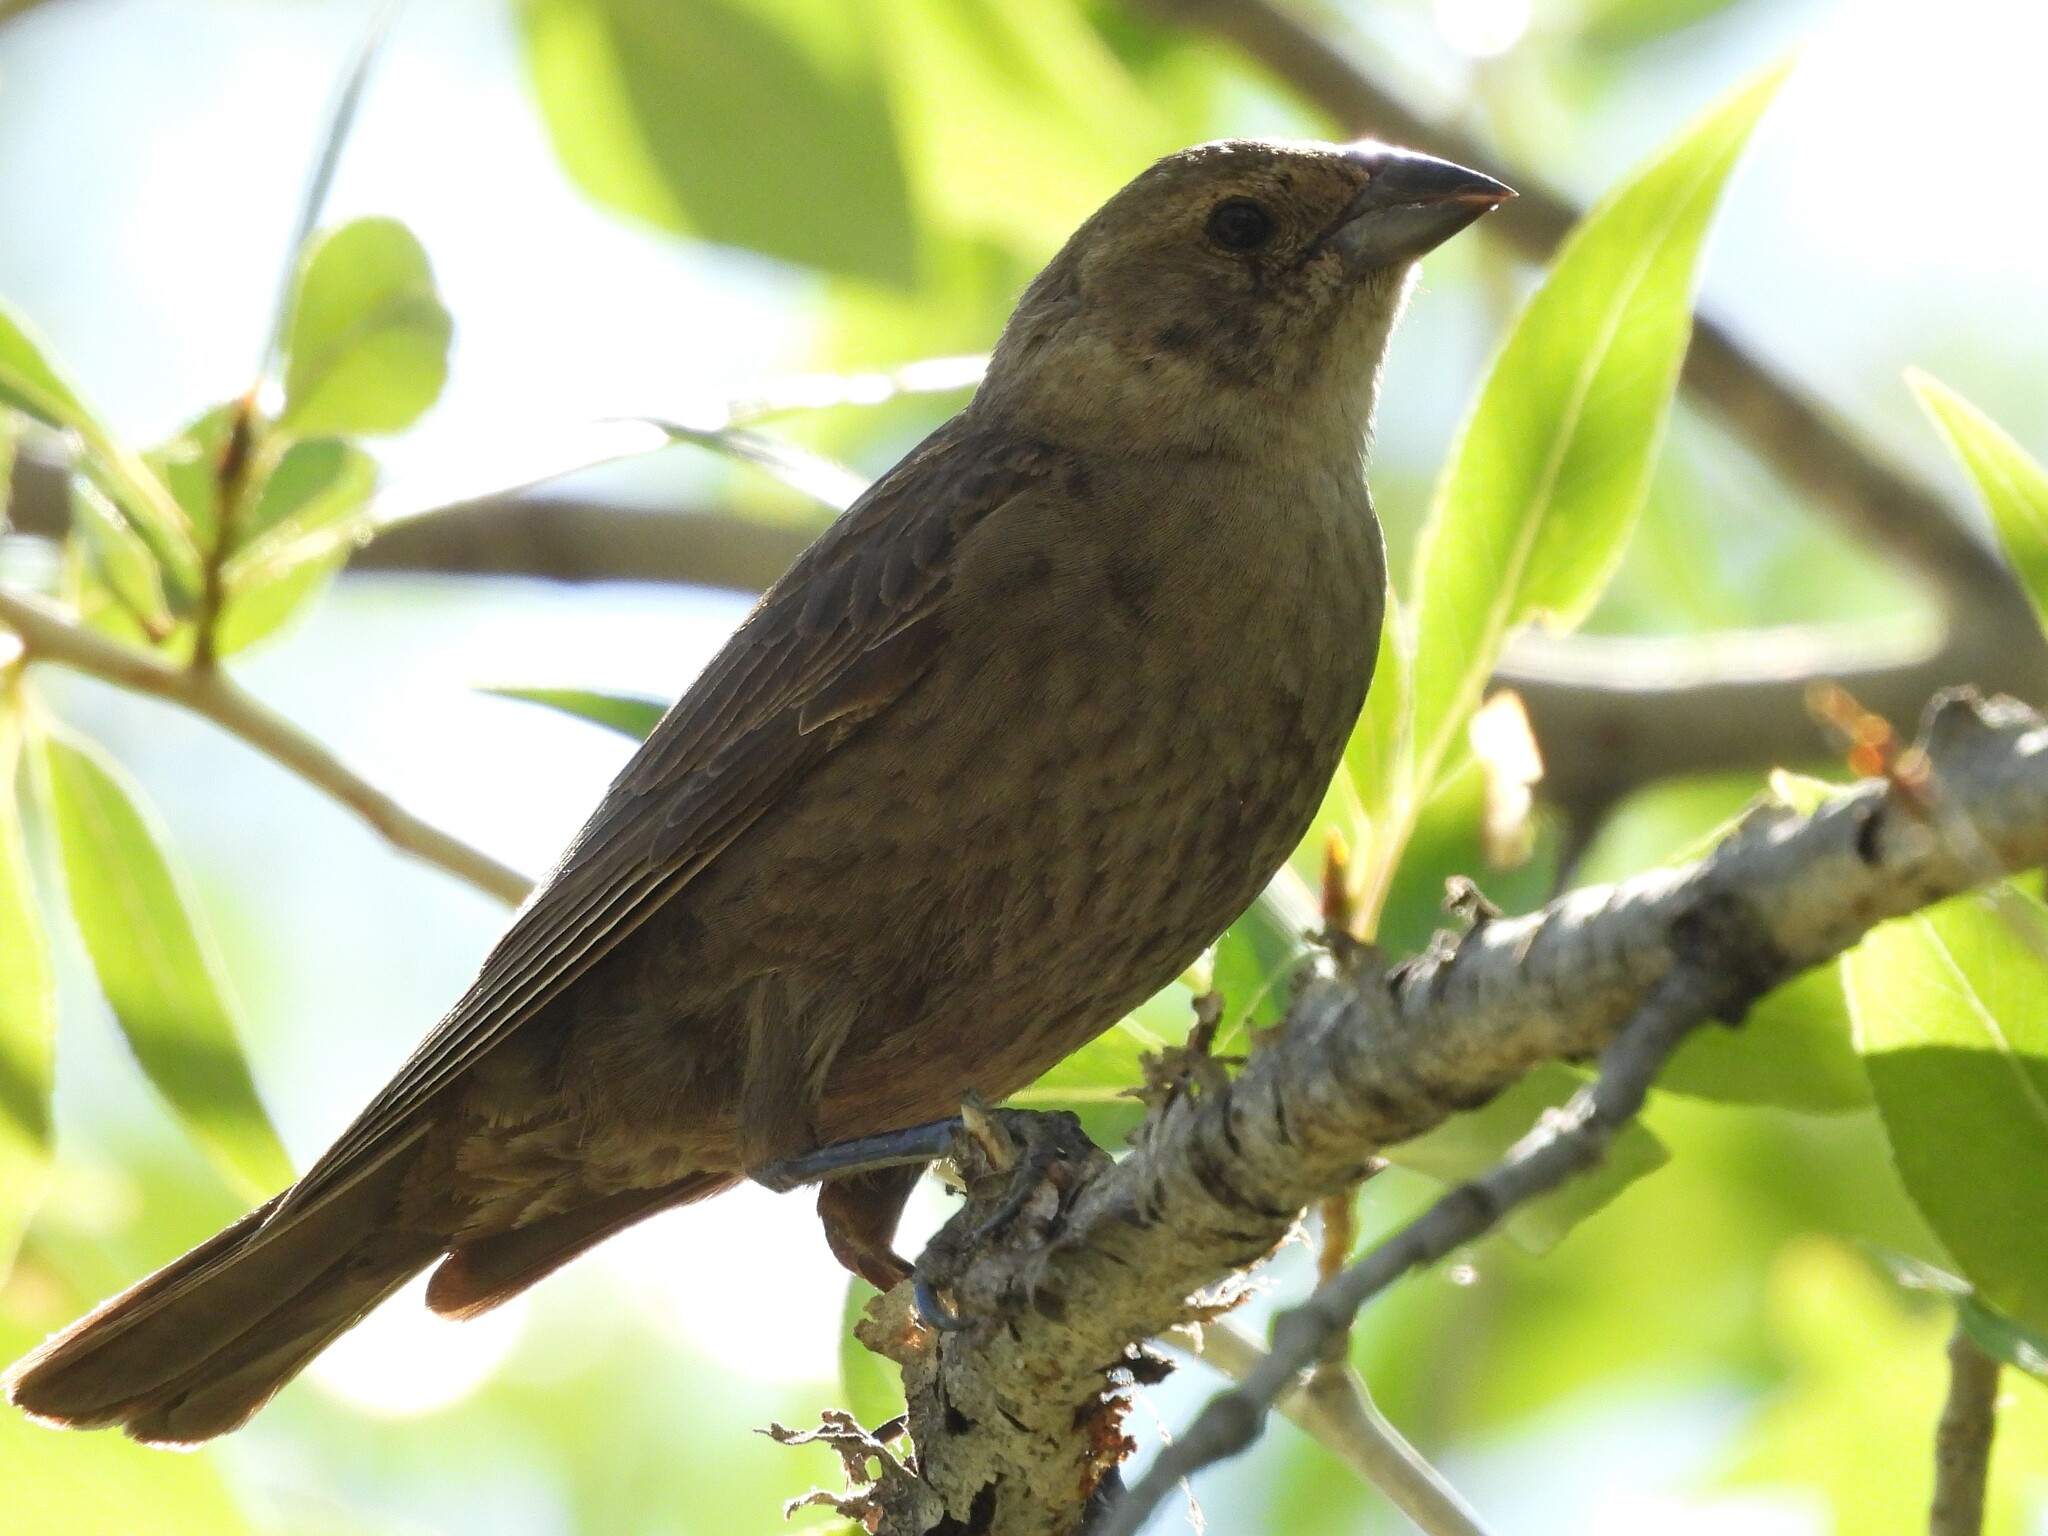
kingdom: Animalia
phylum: Chordata
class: Aves
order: Passeriformes
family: Icteridae
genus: Molothrus
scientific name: Molothrus ater
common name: Brown-headed cowbird
